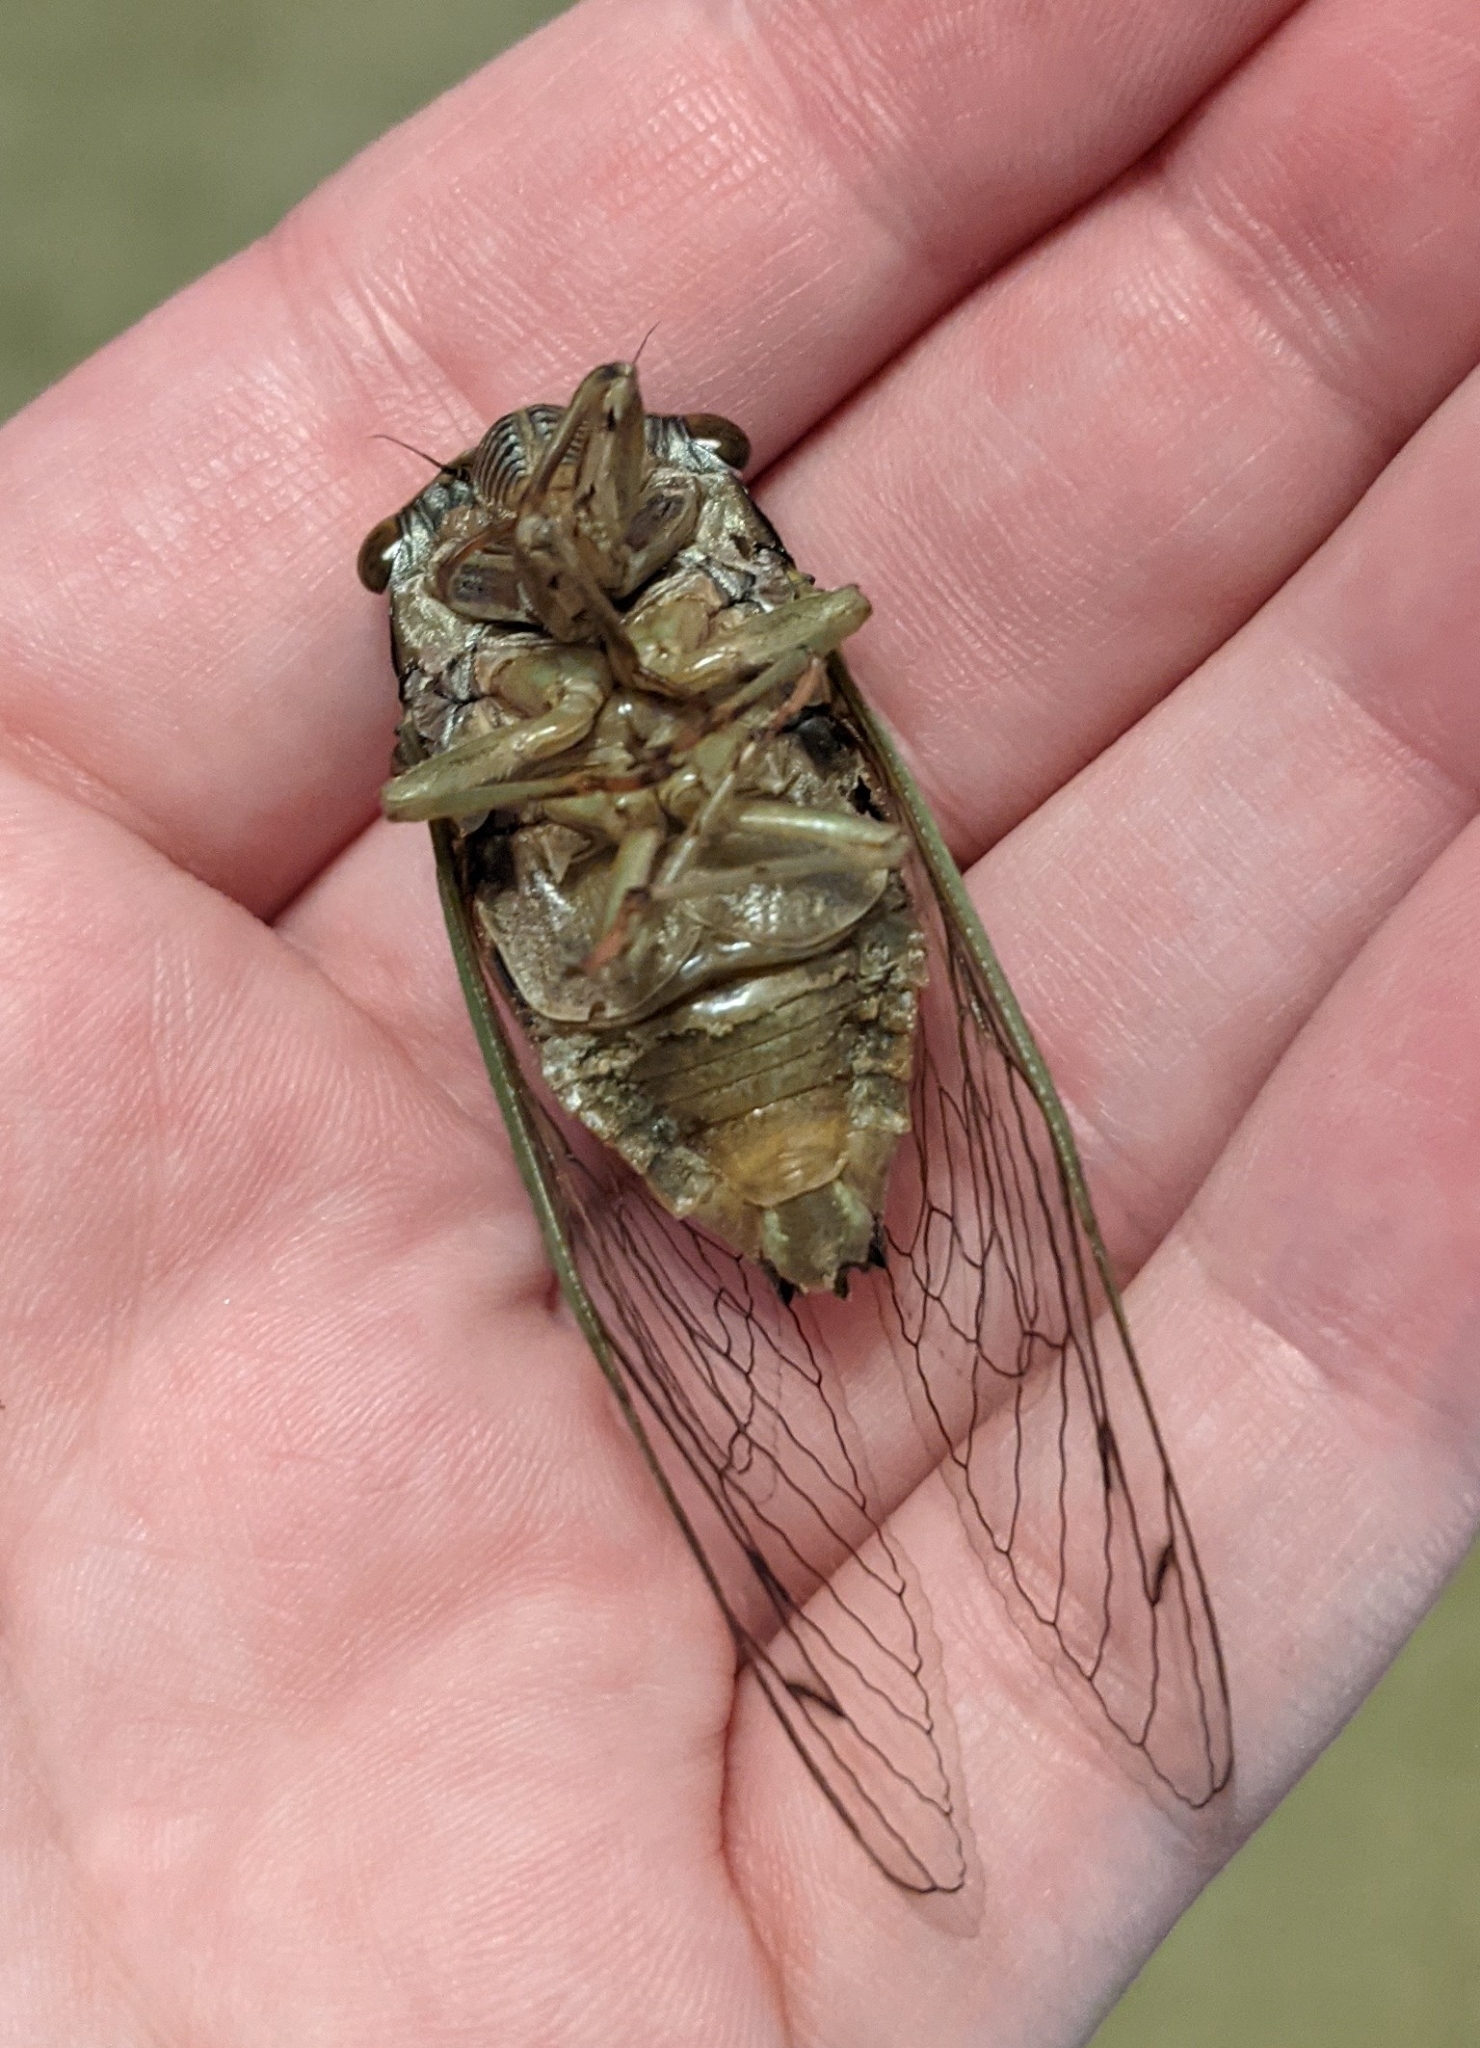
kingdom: Animalia
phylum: Arthropoda
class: Insecta
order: Hemiptera
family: Cicadidae
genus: Megatibicen
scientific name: Megatibicen resh
